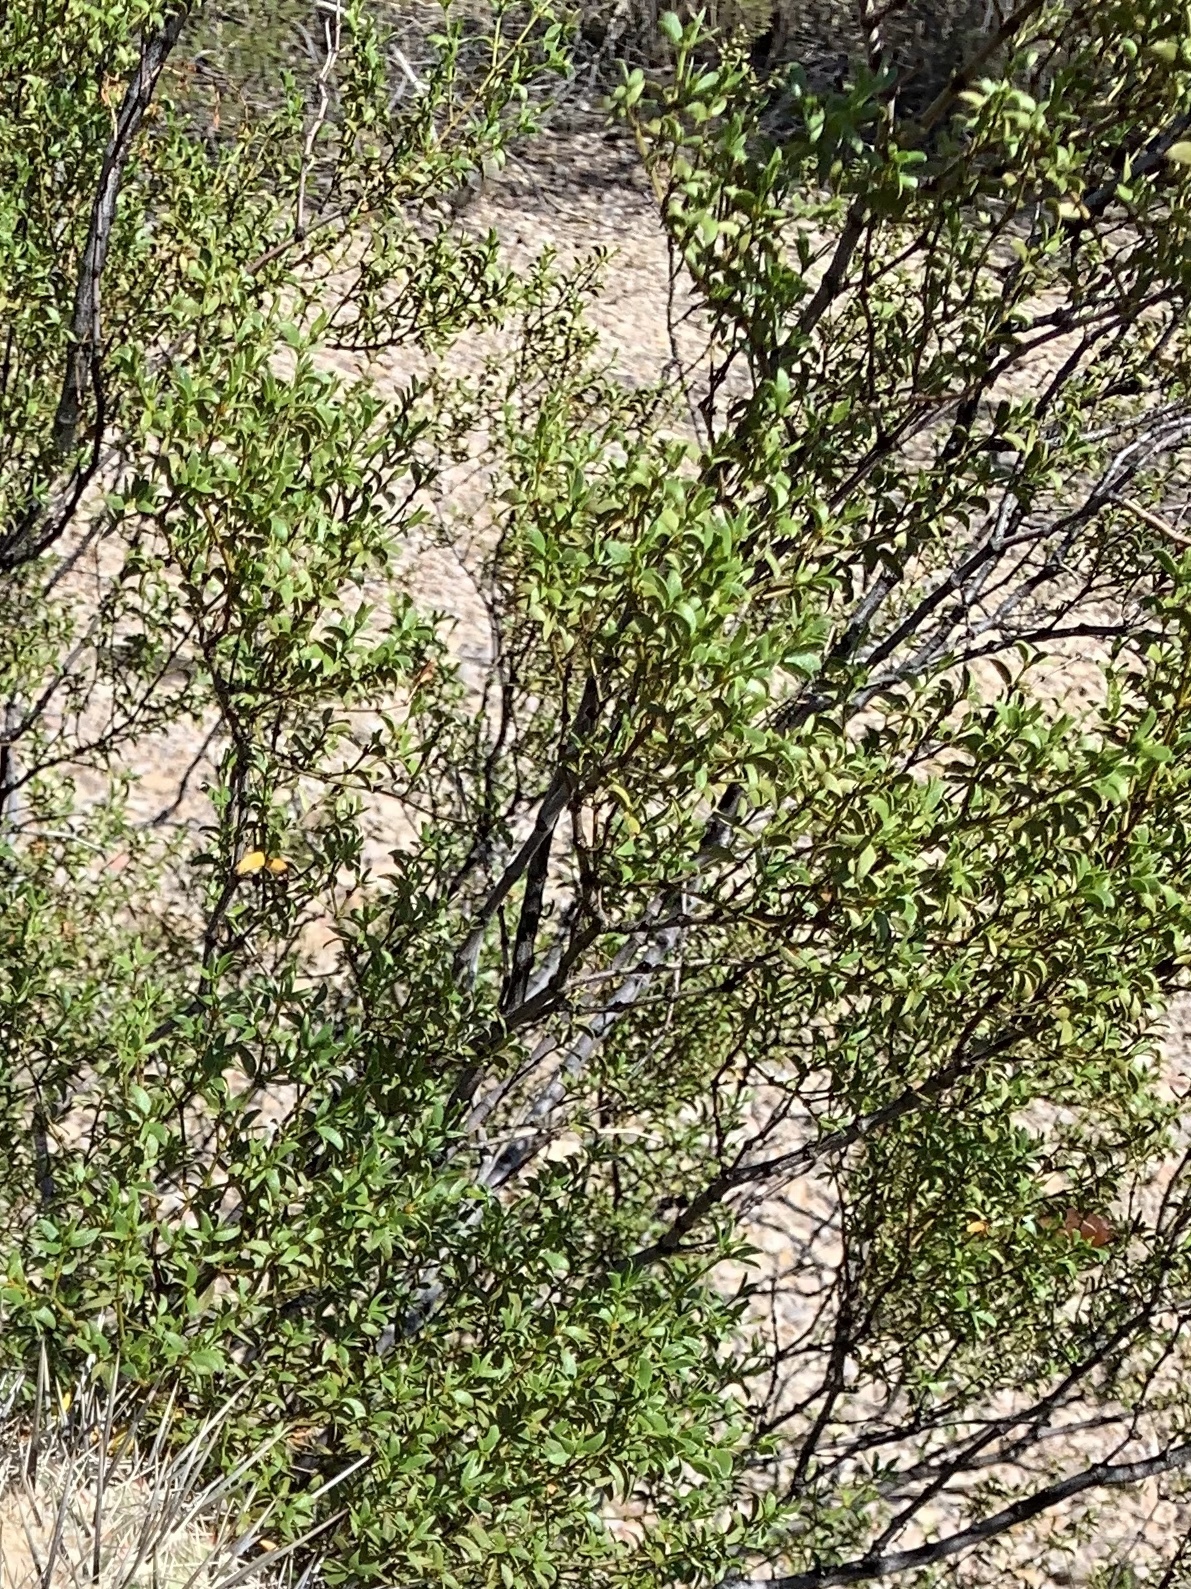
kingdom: Plantae
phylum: Tracheophyta
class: Magnoliopsida
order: Zygophyllales
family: Zygophyllaceae
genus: Larrea
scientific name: Larrea tridentata
